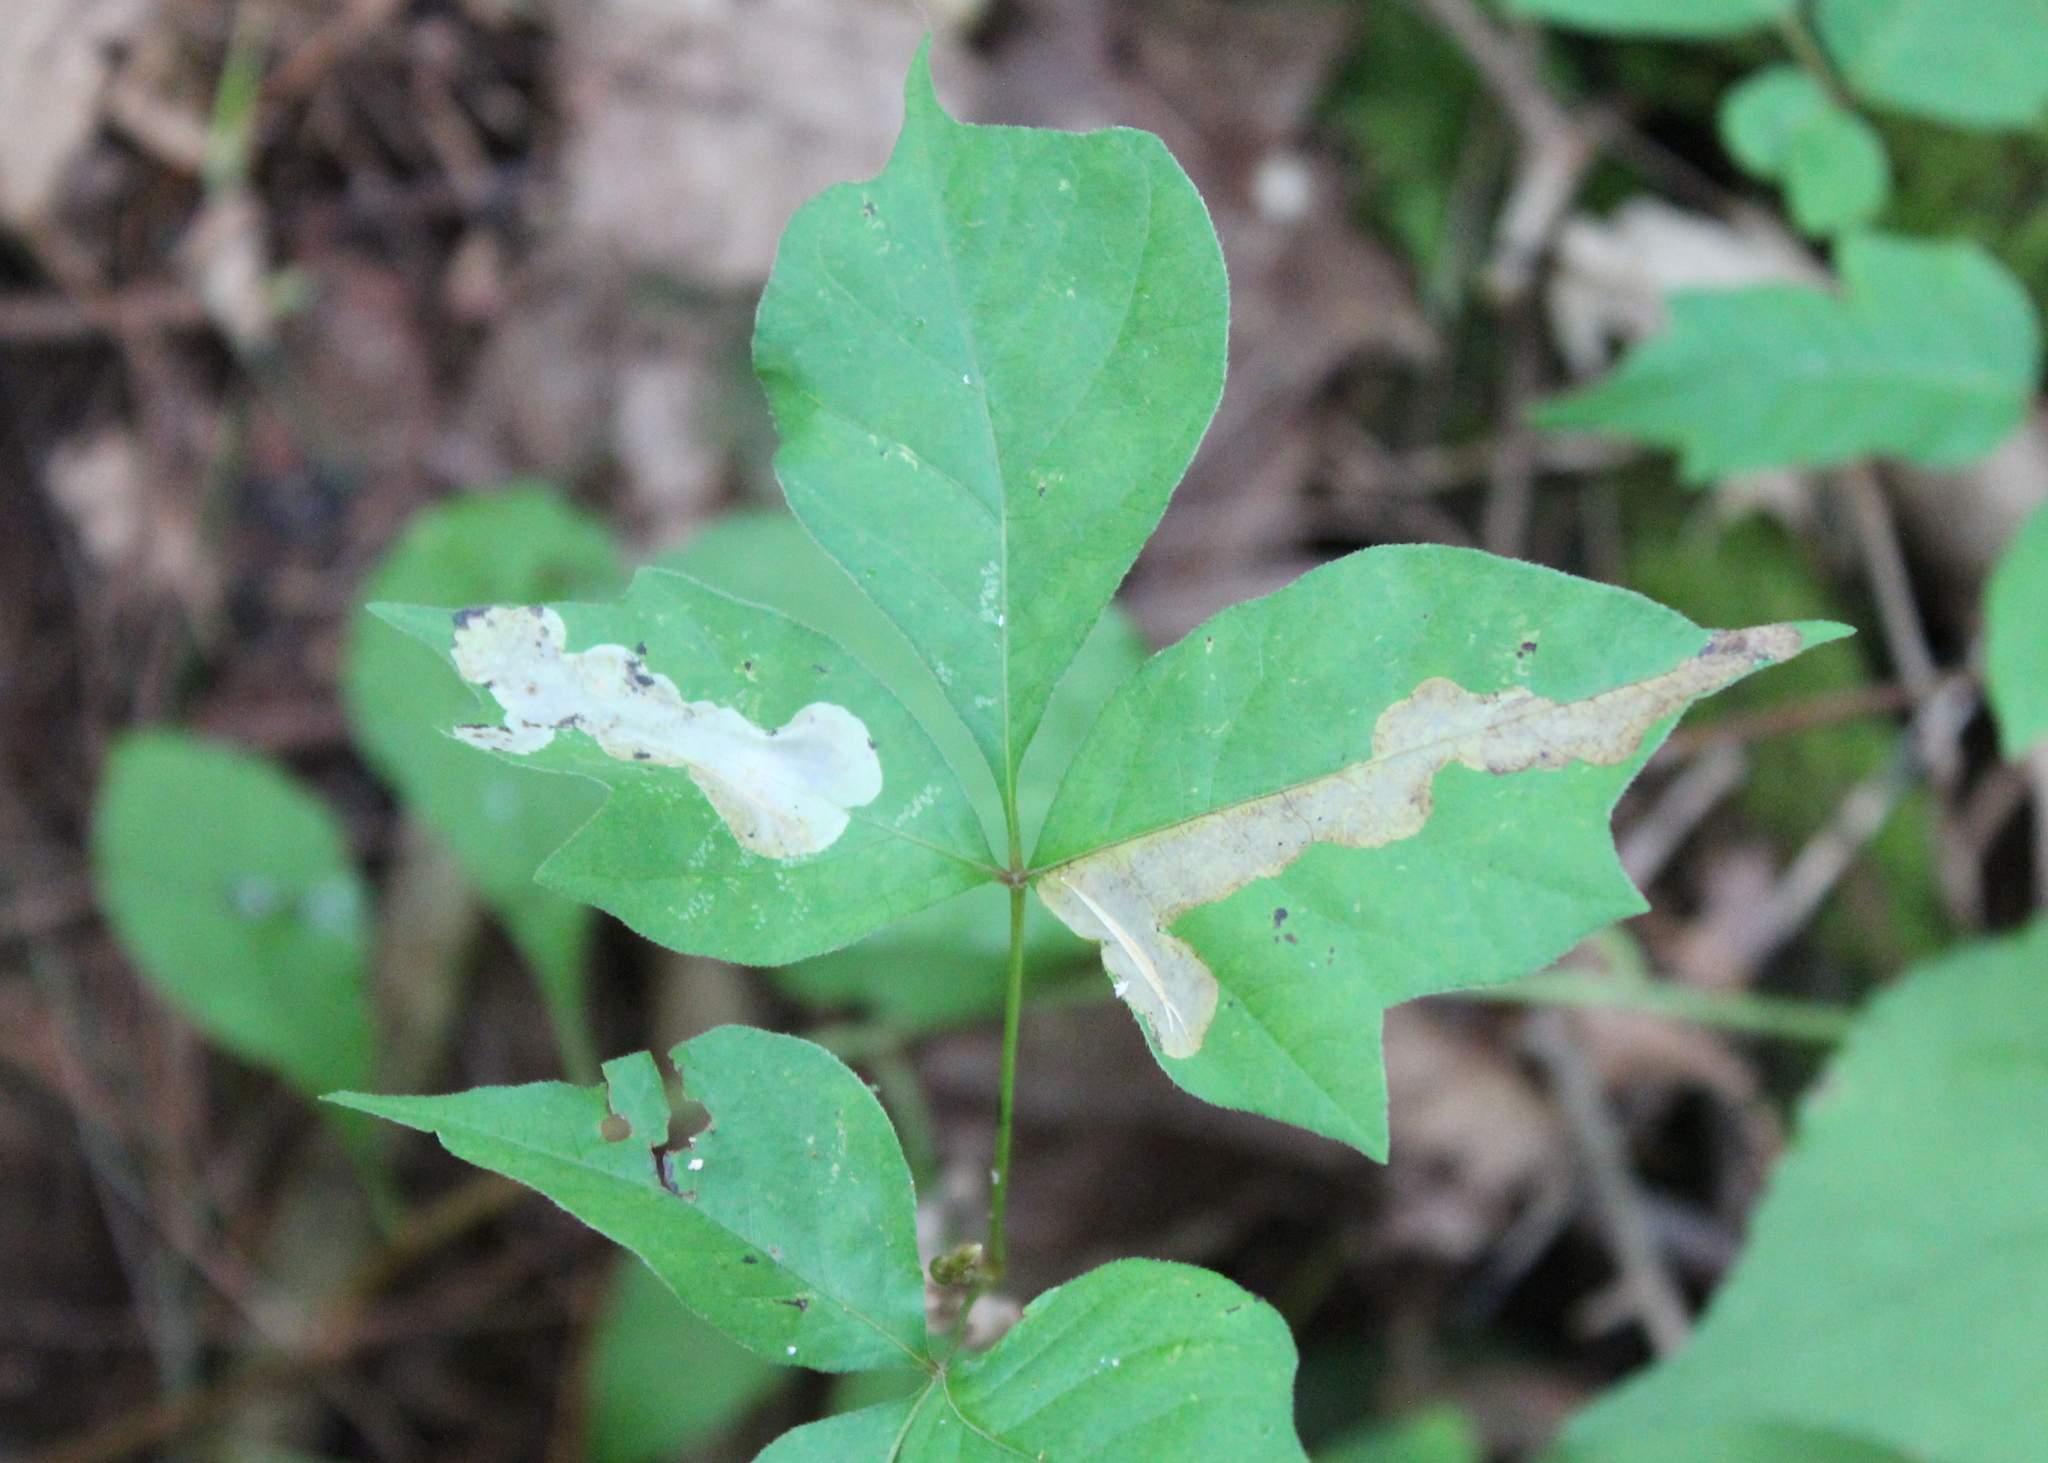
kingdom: Animalia
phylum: Arthropoda
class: Insecta
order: Lepidoptera
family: Gracillariidae
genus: Cameraria
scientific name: Cameraria guttifinitella
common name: Poison ivy leaf-miner moth
